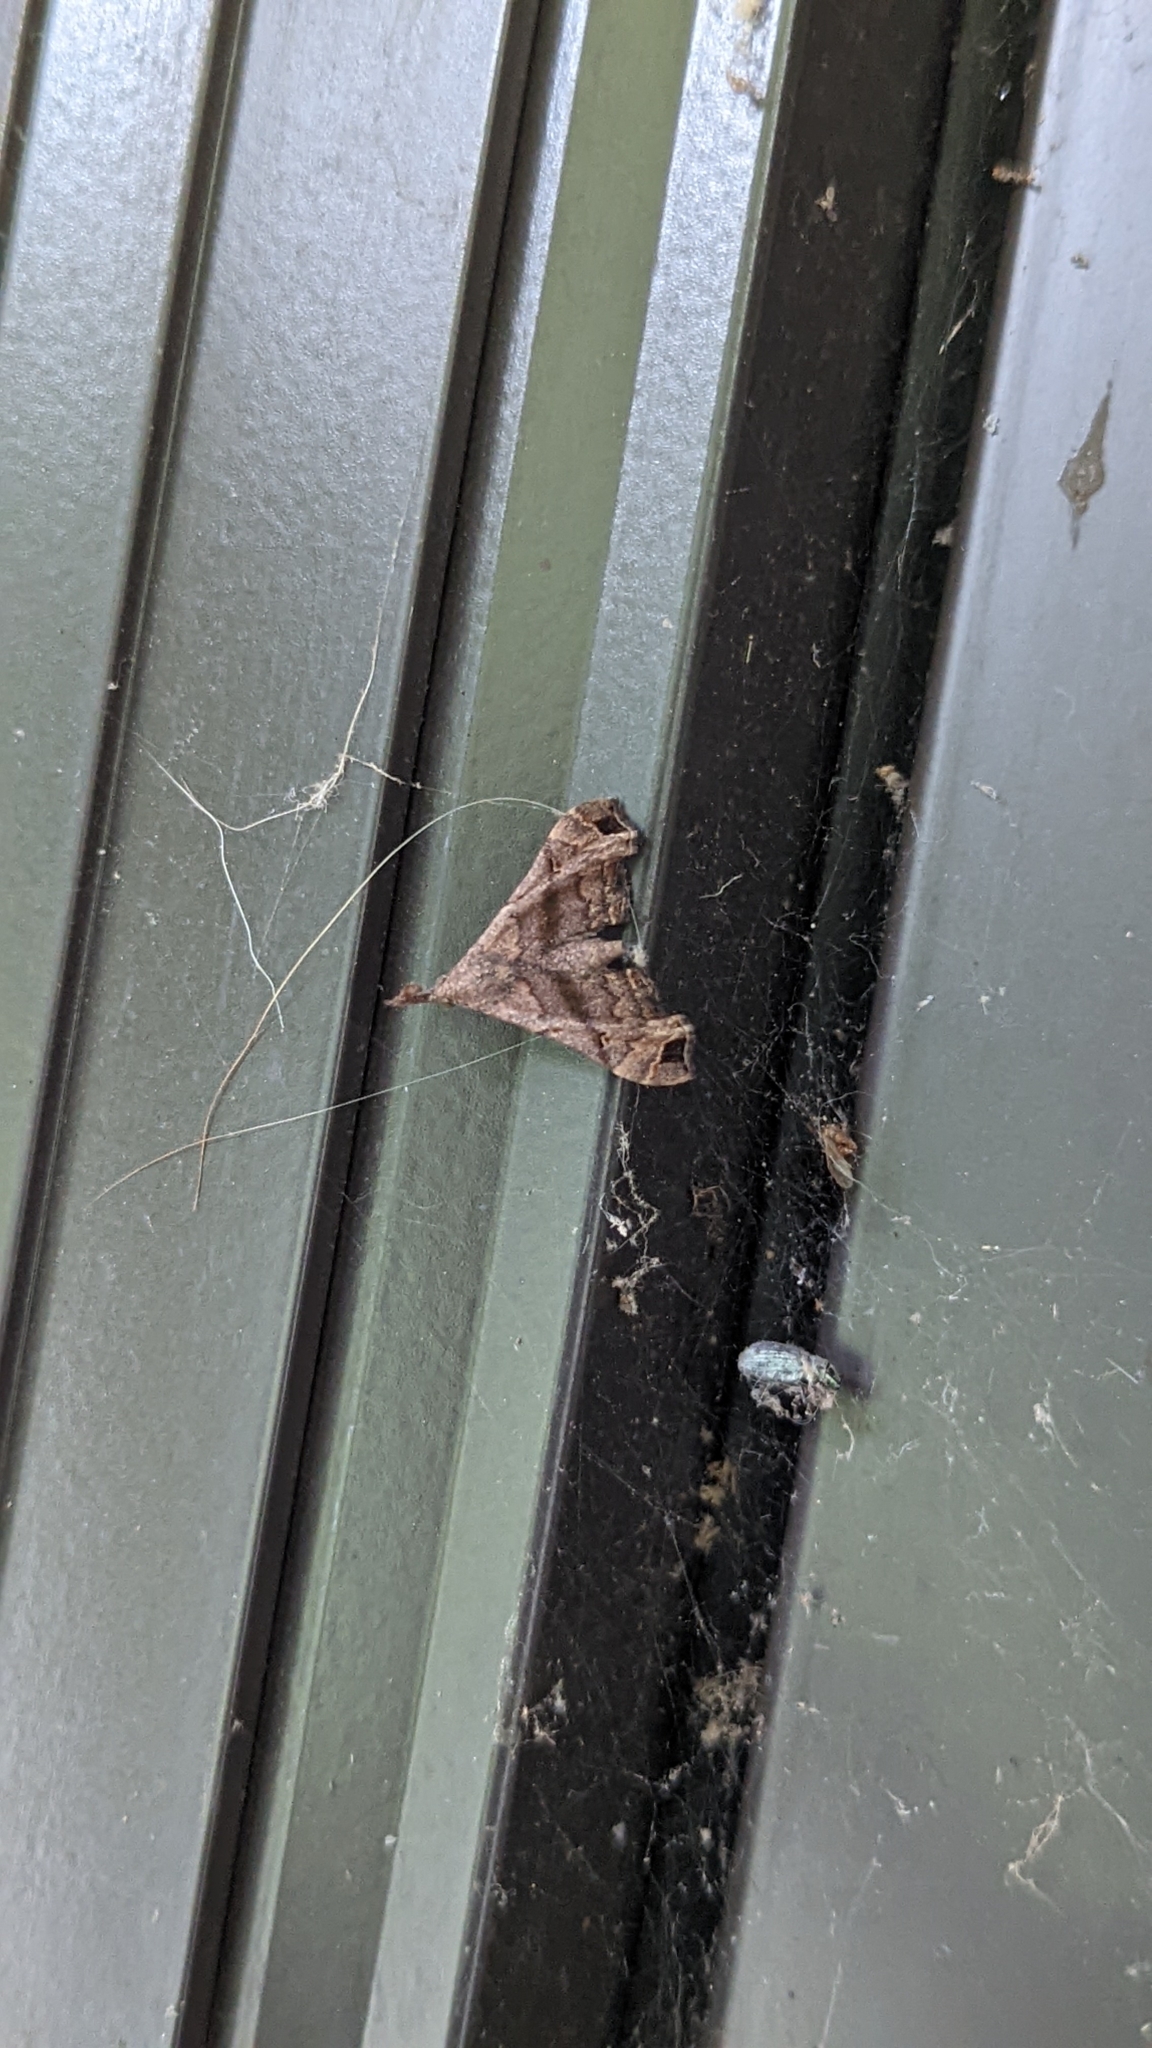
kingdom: Animalia
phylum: Arthropoda
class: Insecta
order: Lepidoptera
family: Erebidae
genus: Palthis
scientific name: Palthis asopialis
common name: Faint-spotted palthis moth
